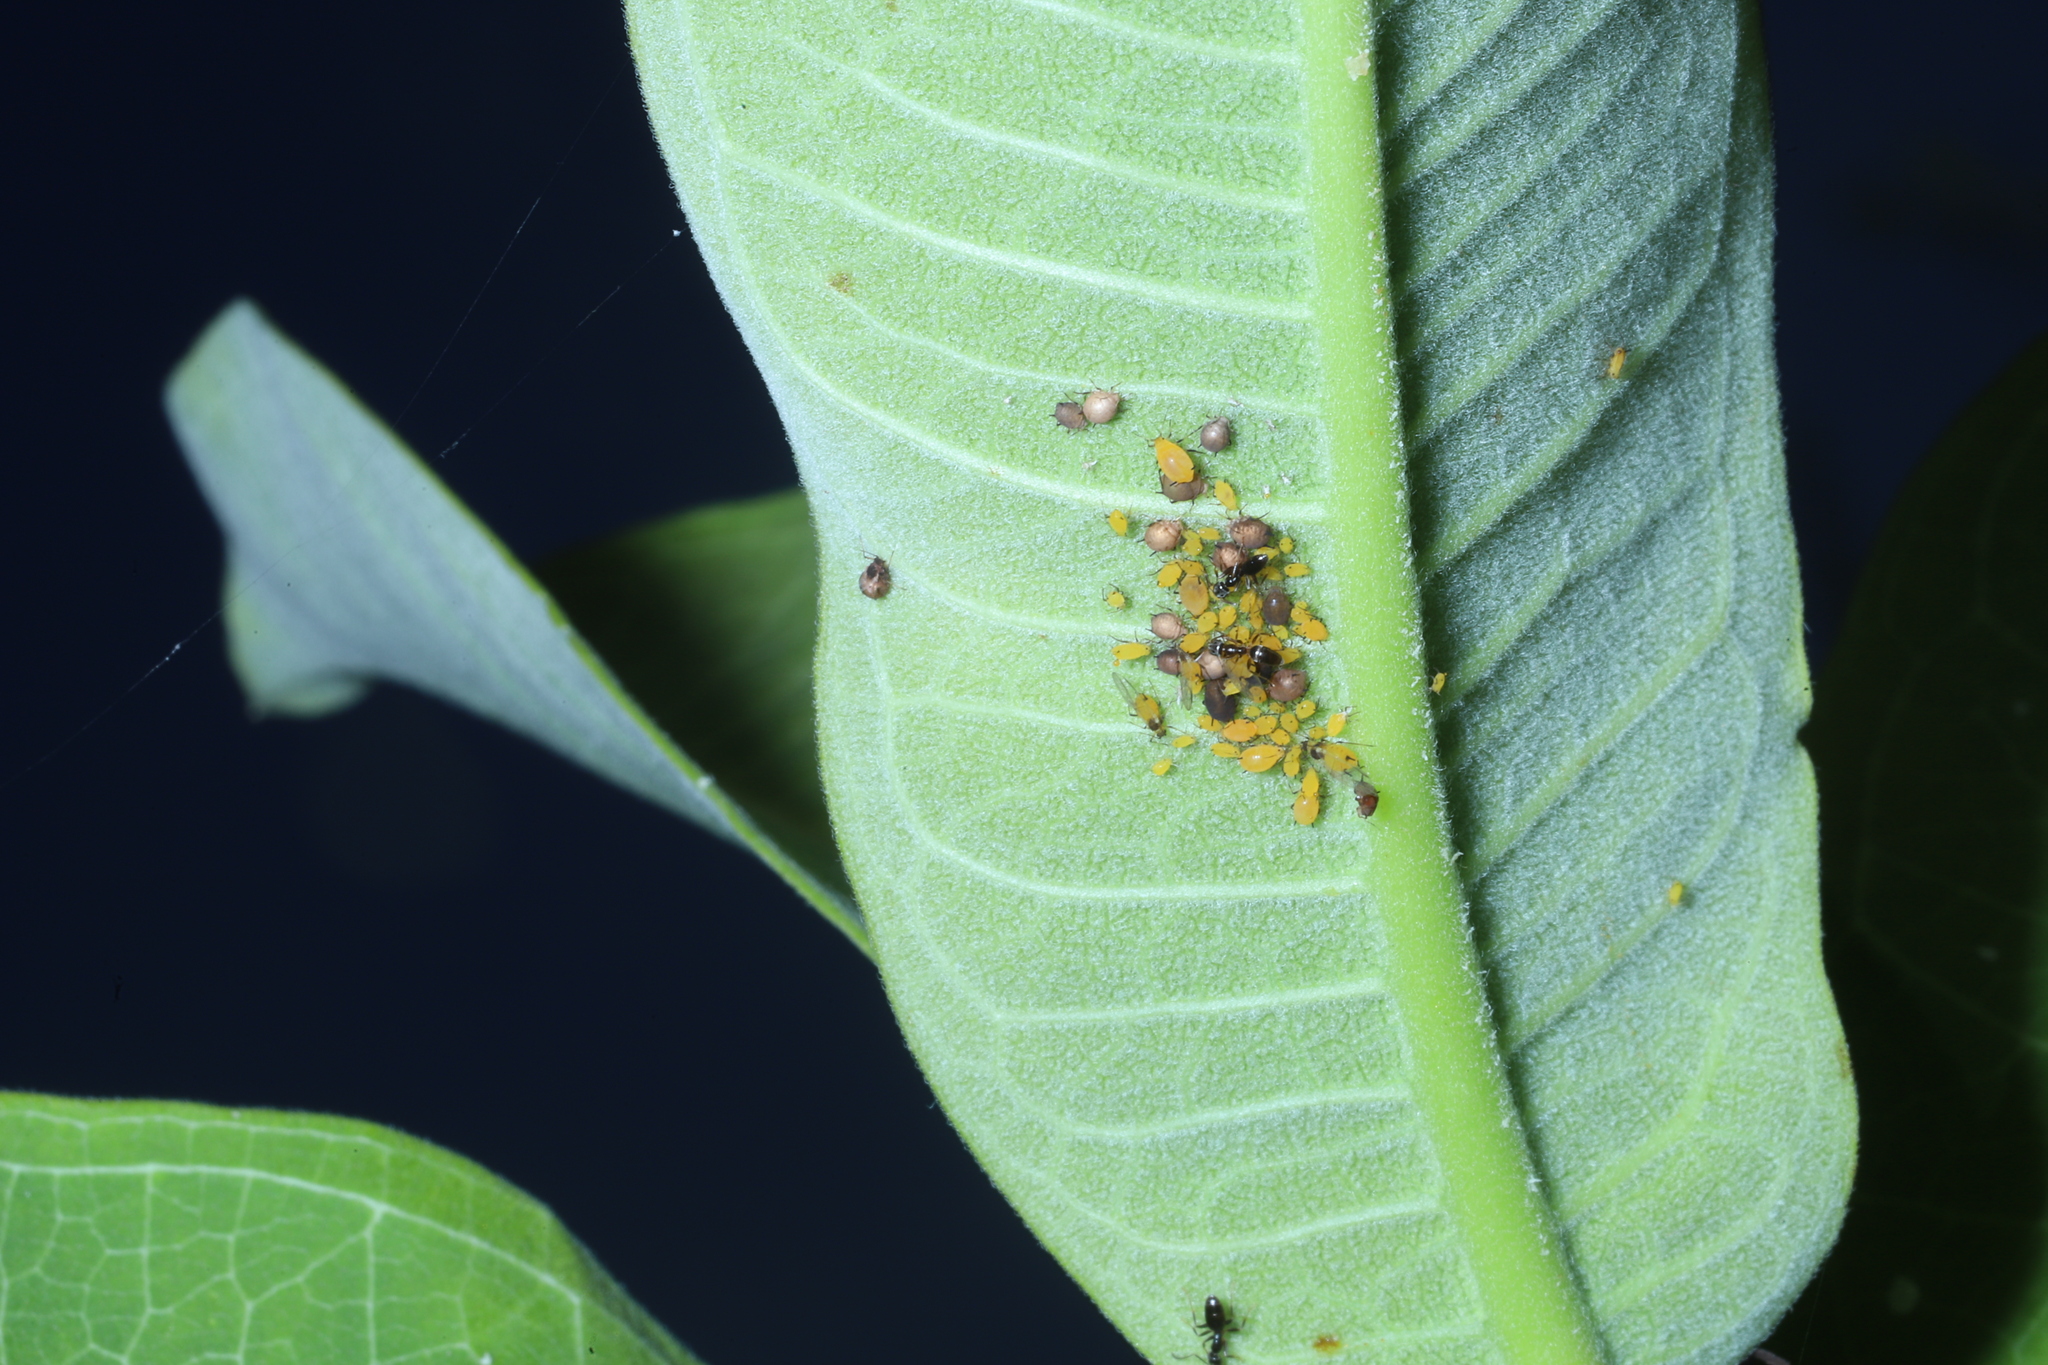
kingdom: Animalia
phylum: Arthropoda
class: Insecta
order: Hemiptera
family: Aphididae
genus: Aphis
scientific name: Aphis nerii
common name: Oleander aphid
